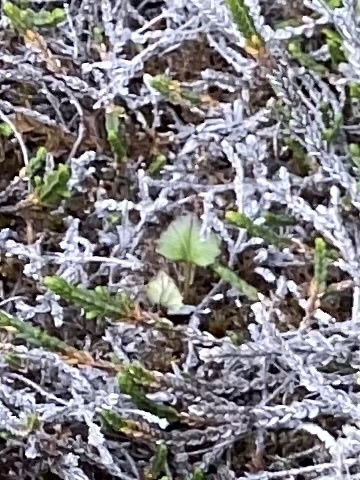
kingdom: Plantae
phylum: Tracheophyta
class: Magnoliopsida
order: Asterales
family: Asteraceae
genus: Endocellion
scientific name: Endocellion glaciale
